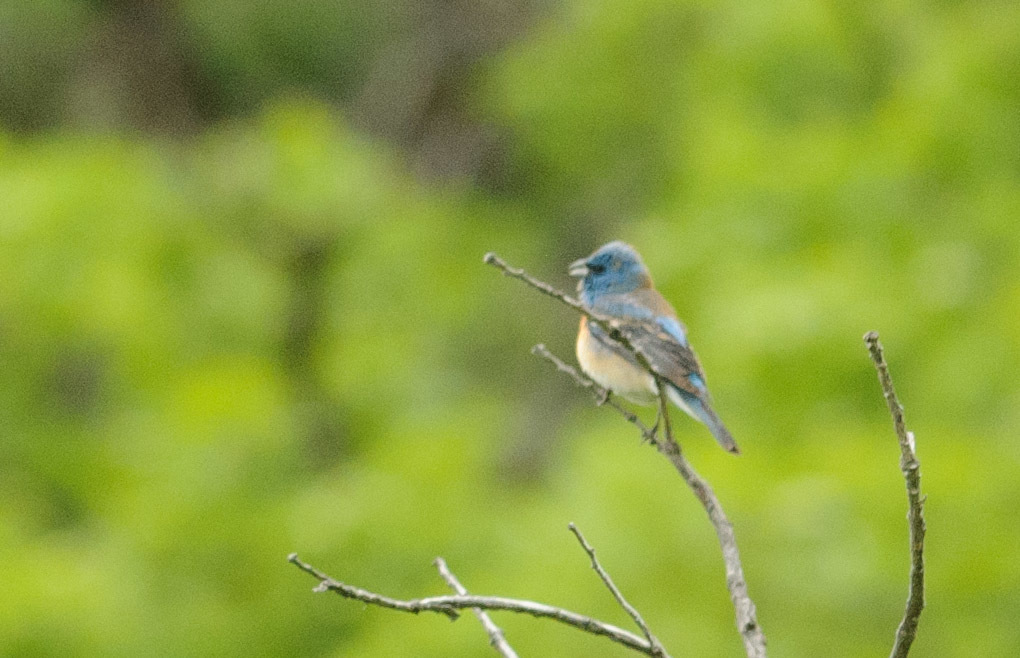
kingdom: Animalia
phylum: Chordata
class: Aves
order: Passeriformes
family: Cardinalidae
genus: Passerina
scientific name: Passerina amoena
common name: Lazuli bunting
